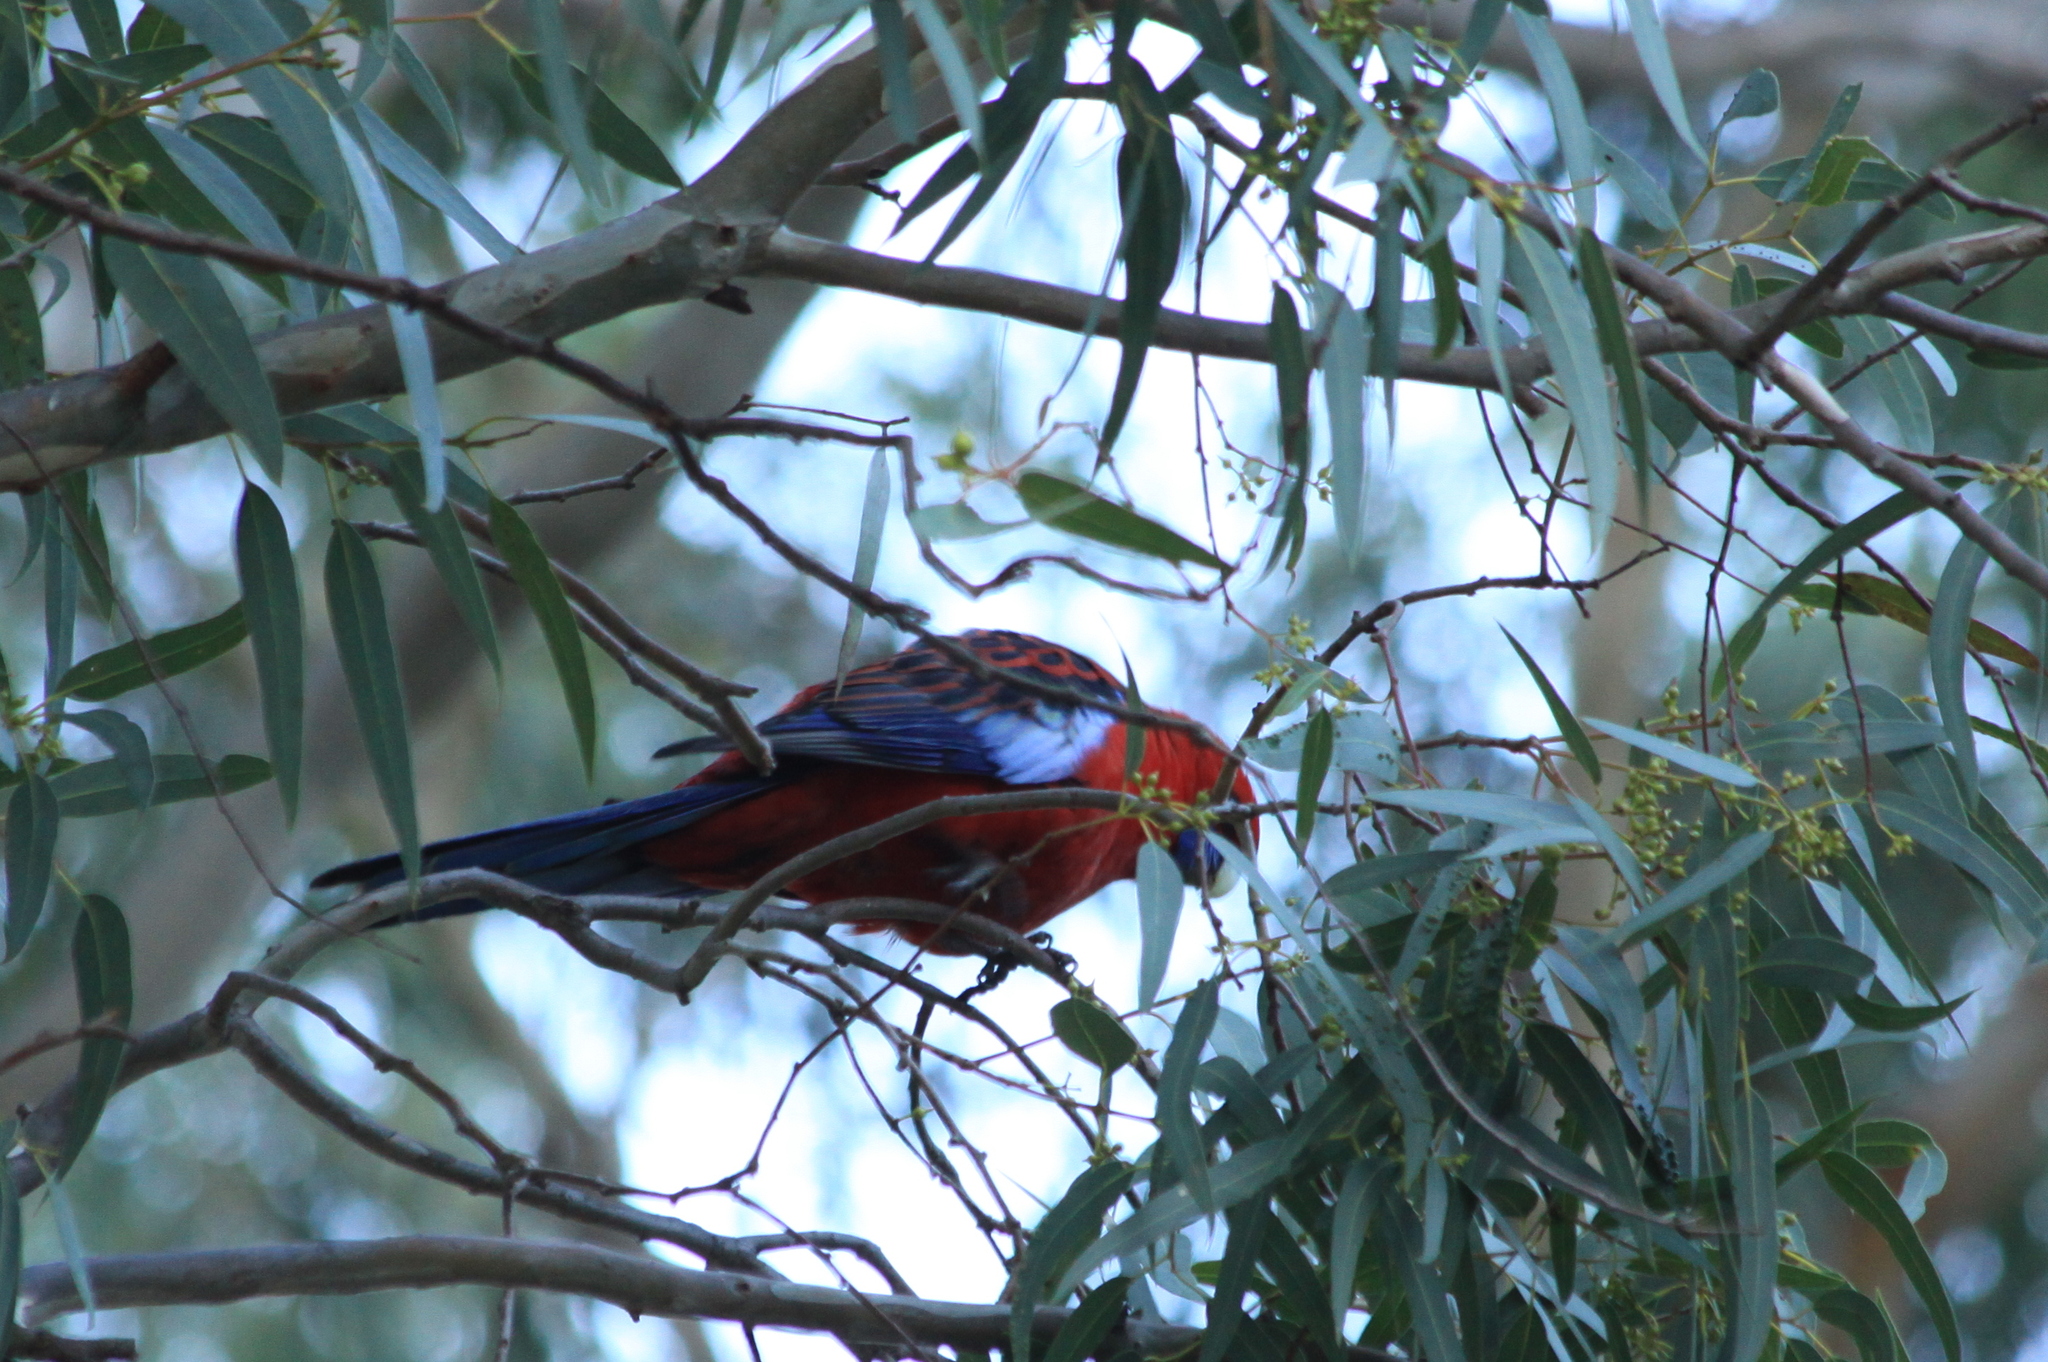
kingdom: Animalia
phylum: Chordata
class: Aves
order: Psittaciformes
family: Psittacidae
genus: Platycercus
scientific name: Platycercus elegans
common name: Crimson rosella
